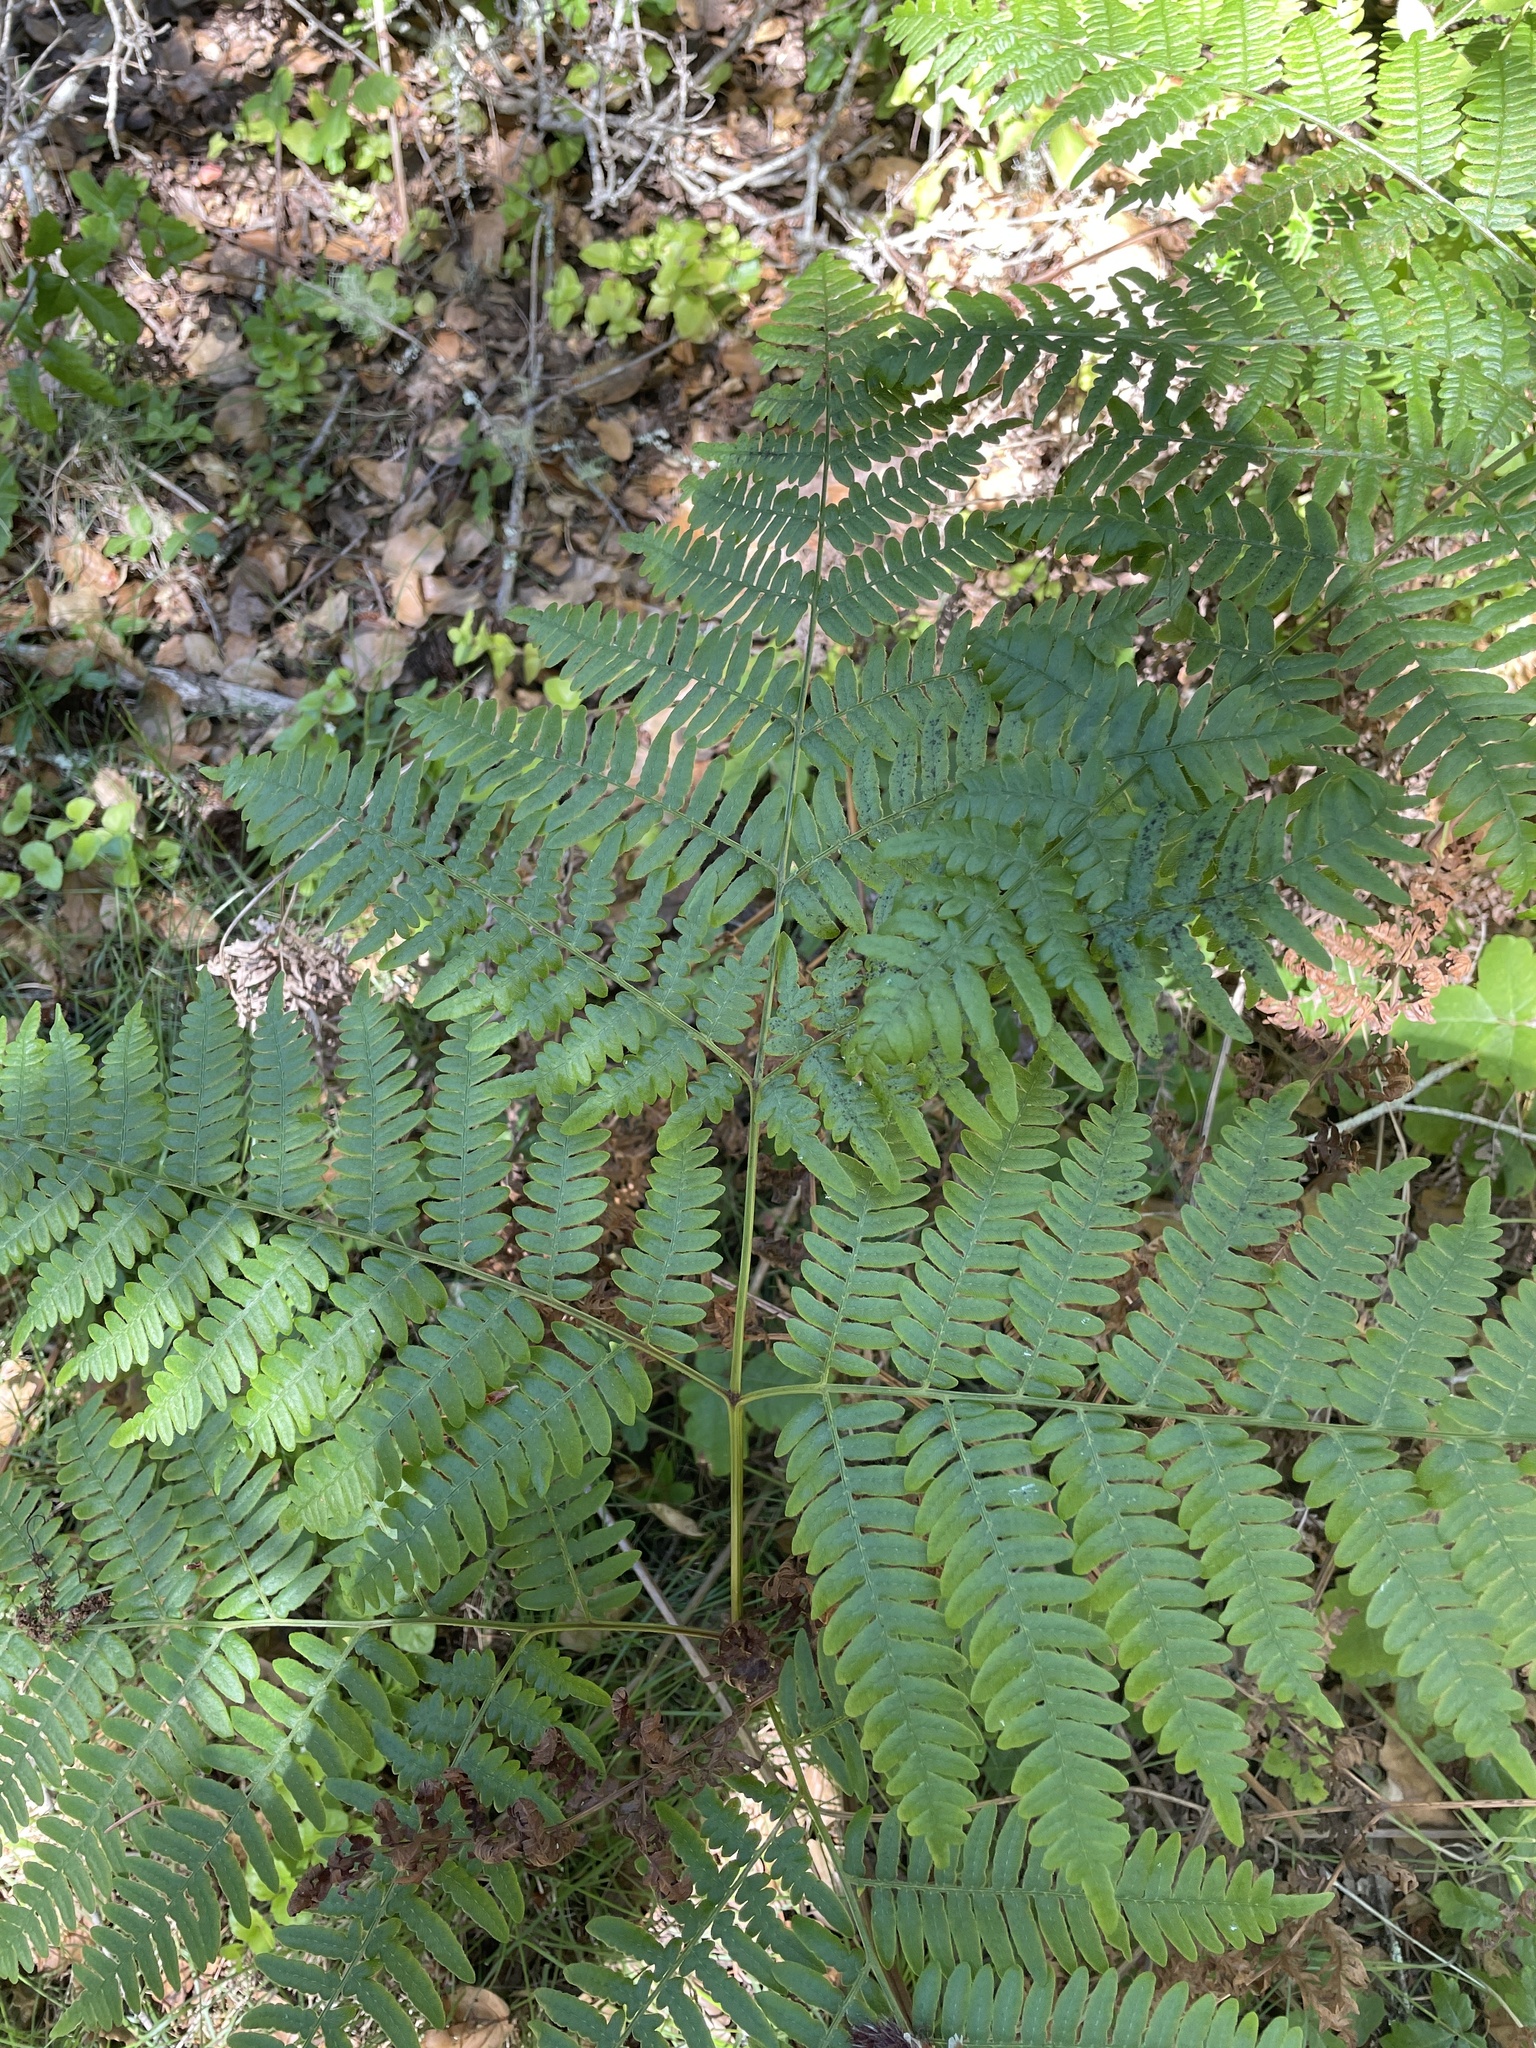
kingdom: Plantae
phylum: Tracheophyta
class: Polypodiopsida
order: Polypodiales
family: Dennstaedtiaceae
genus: Pteridium
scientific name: Pteridium aquilinum
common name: Bracken
